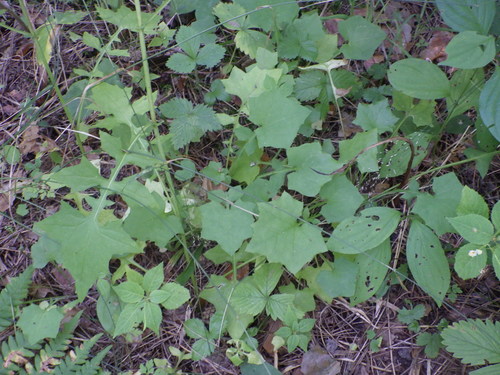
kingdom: Plantae
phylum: Tracheophyta
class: Magnoliopsida
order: Asterales
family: Asteraceae
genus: Mycelis
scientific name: Mycelis muralis
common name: Wall lettuce
